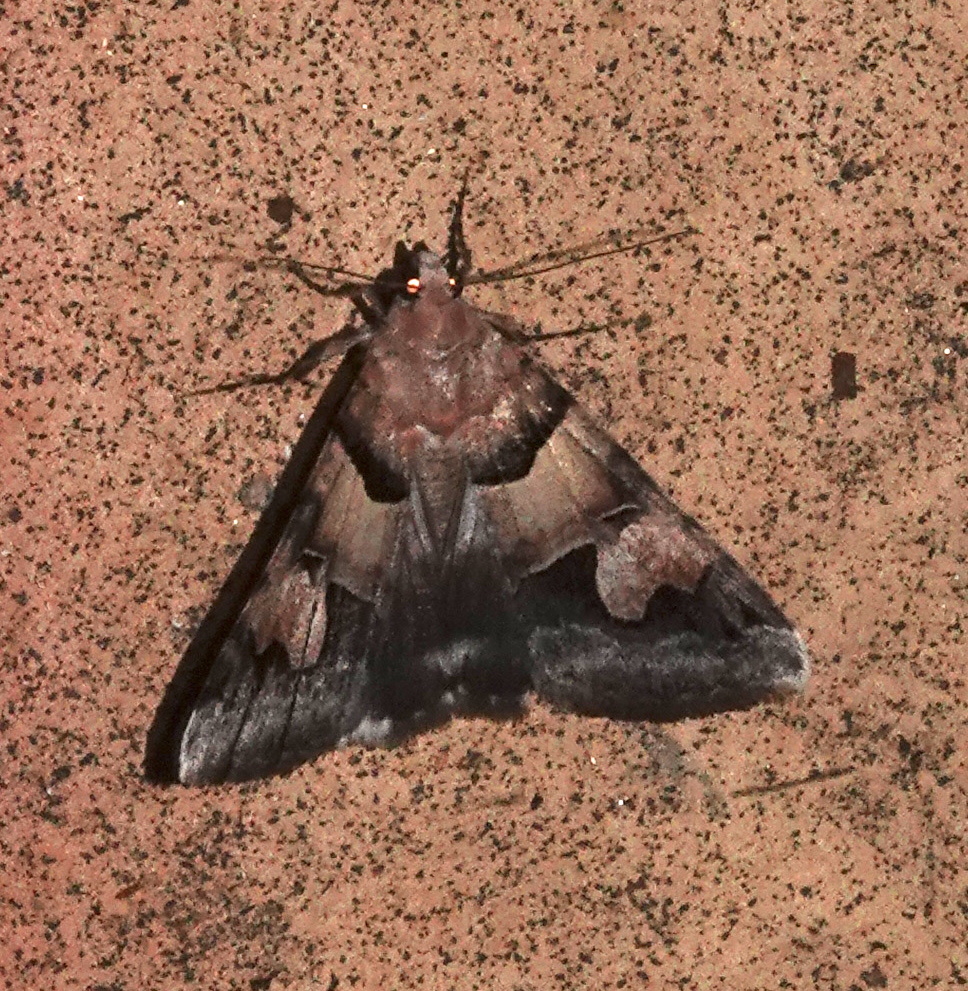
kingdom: Animalia
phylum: Arthropoda
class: Insecta
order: Lepidoptera
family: Erebidae
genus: Drasteria
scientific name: Drasteria pallescens
